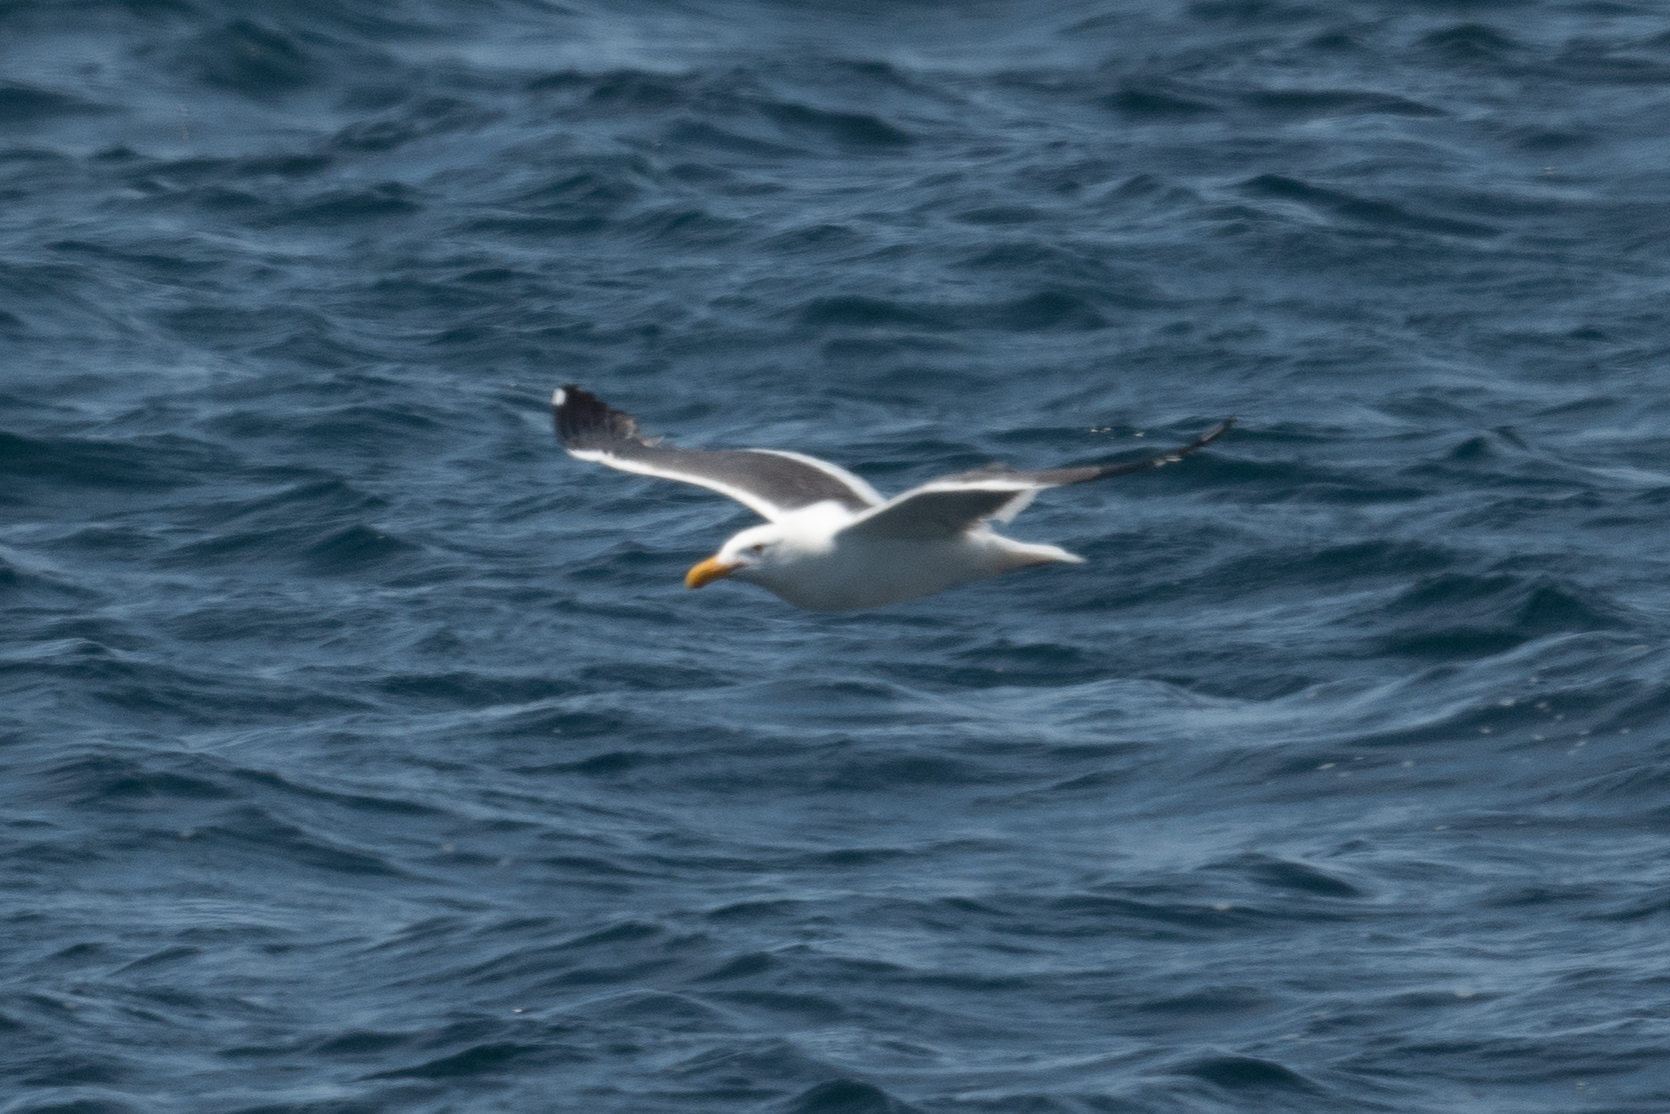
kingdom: Animalia
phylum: Chordata
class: Aves
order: Charadriiformes
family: Laridae
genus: Larus
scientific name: Larus occidentalis
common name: Western gull
